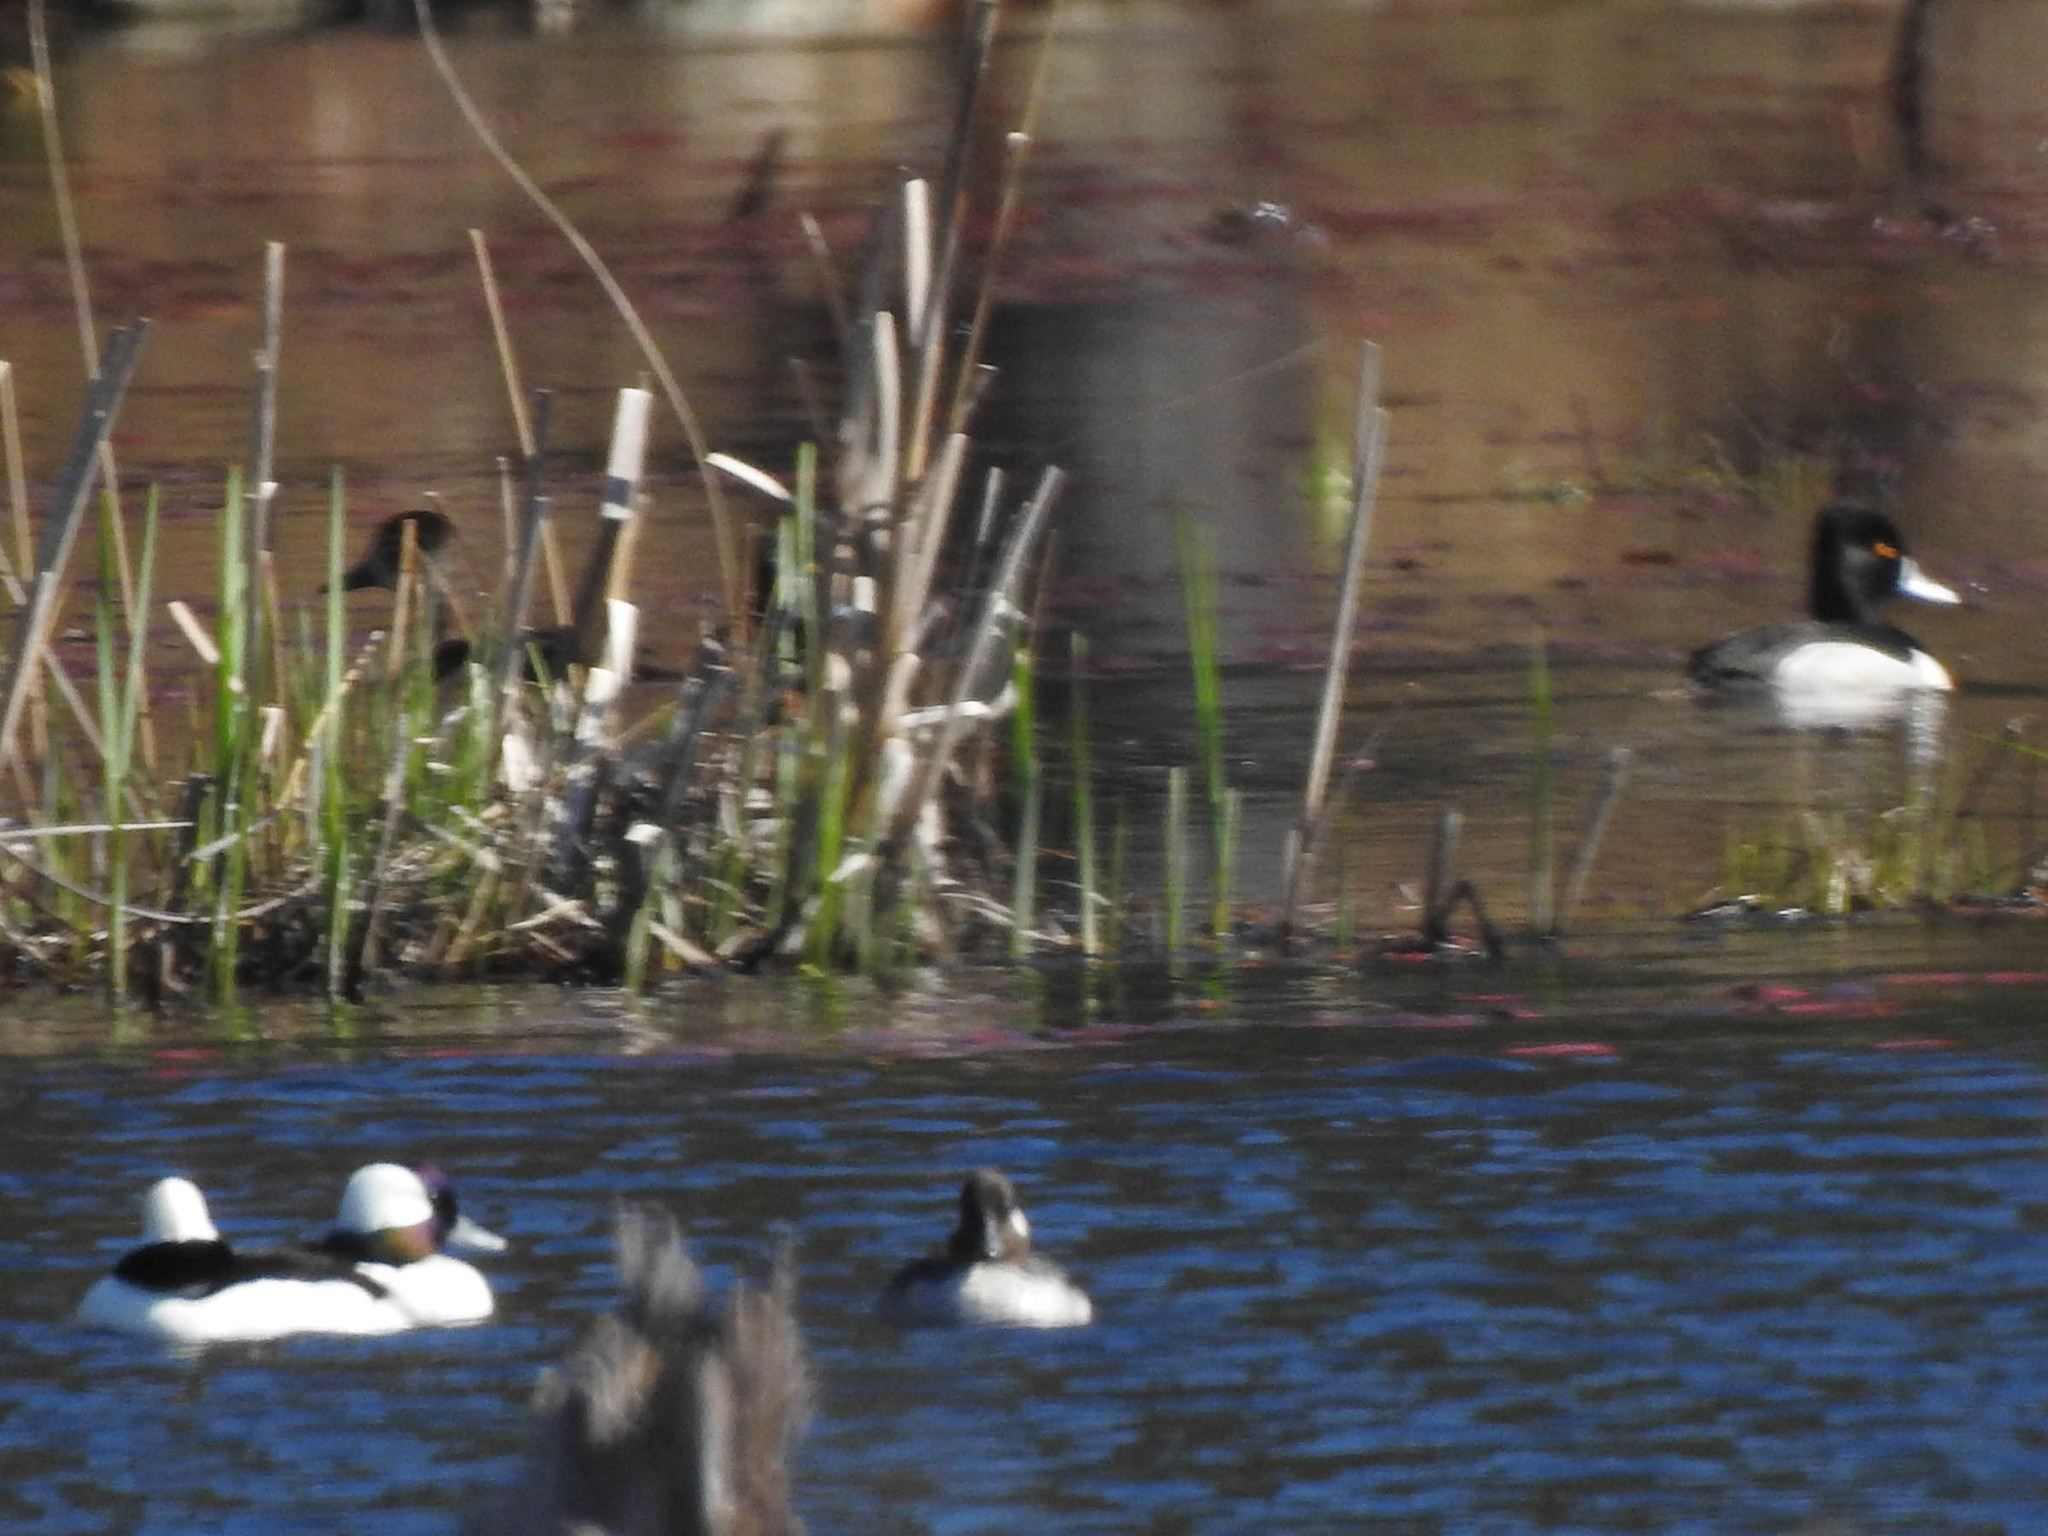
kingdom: Animalia
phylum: Chordata
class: Aves
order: Anseriformes
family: Anatidae
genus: Aythya
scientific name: Aythya collaris
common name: Ring-necked duck
